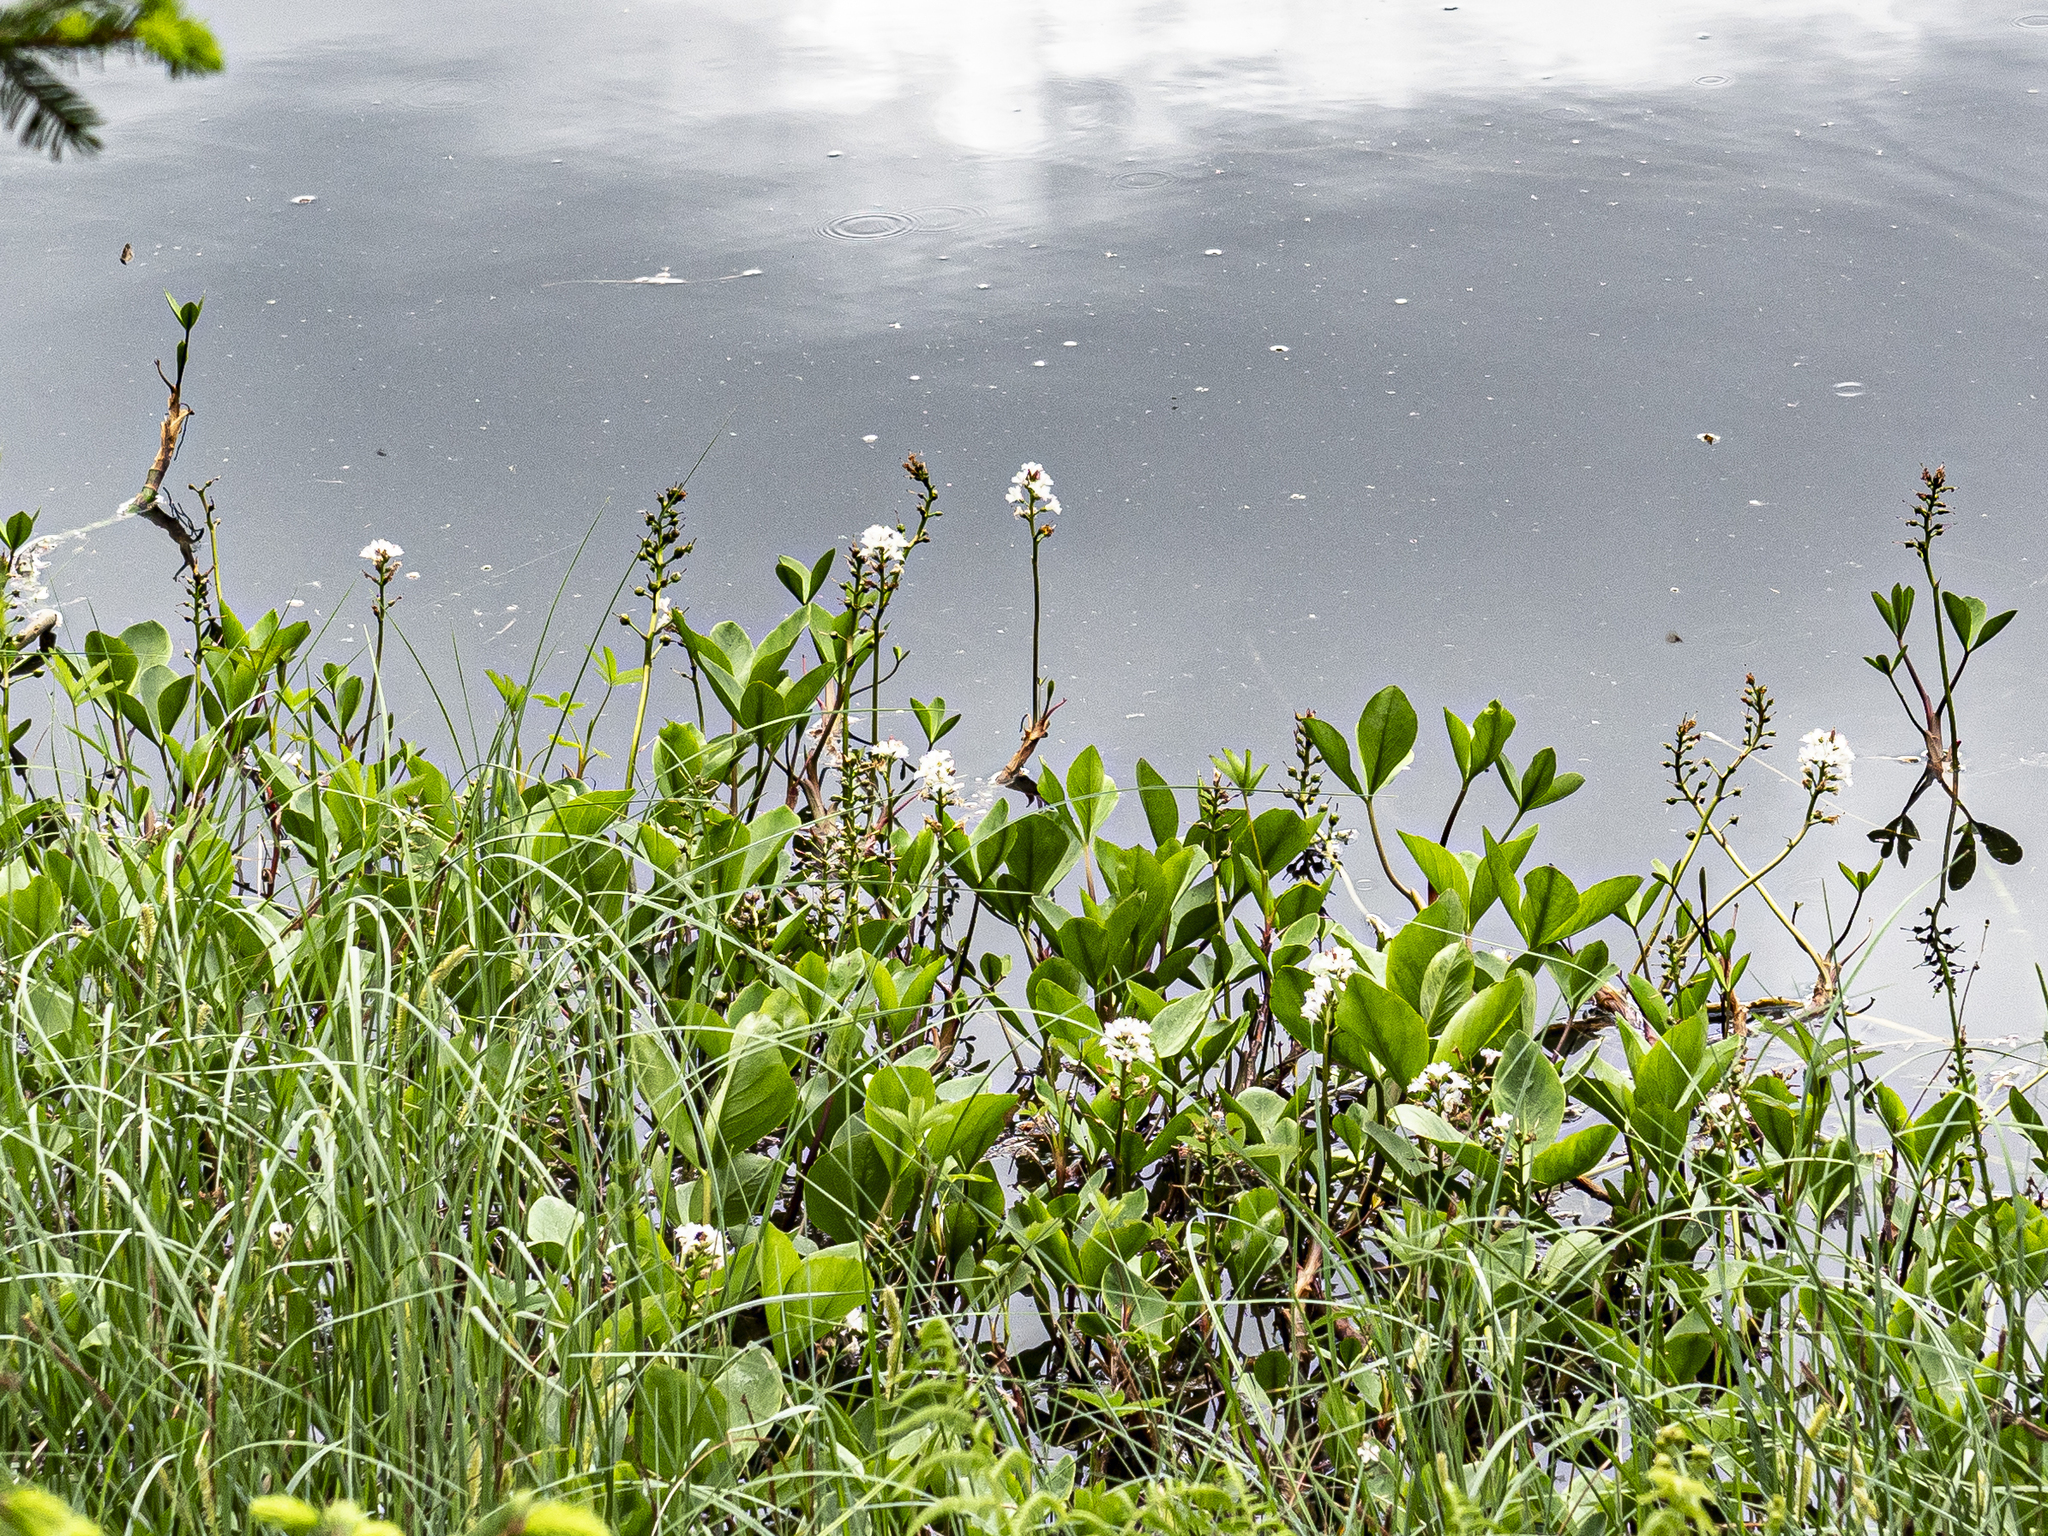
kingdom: Plantae
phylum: Tracheophyta
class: Magnoliopsida
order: Asterales
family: Menyanthaceae
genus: Menyanthes
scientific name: Menyanthes trifoliata
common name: Bogbean
